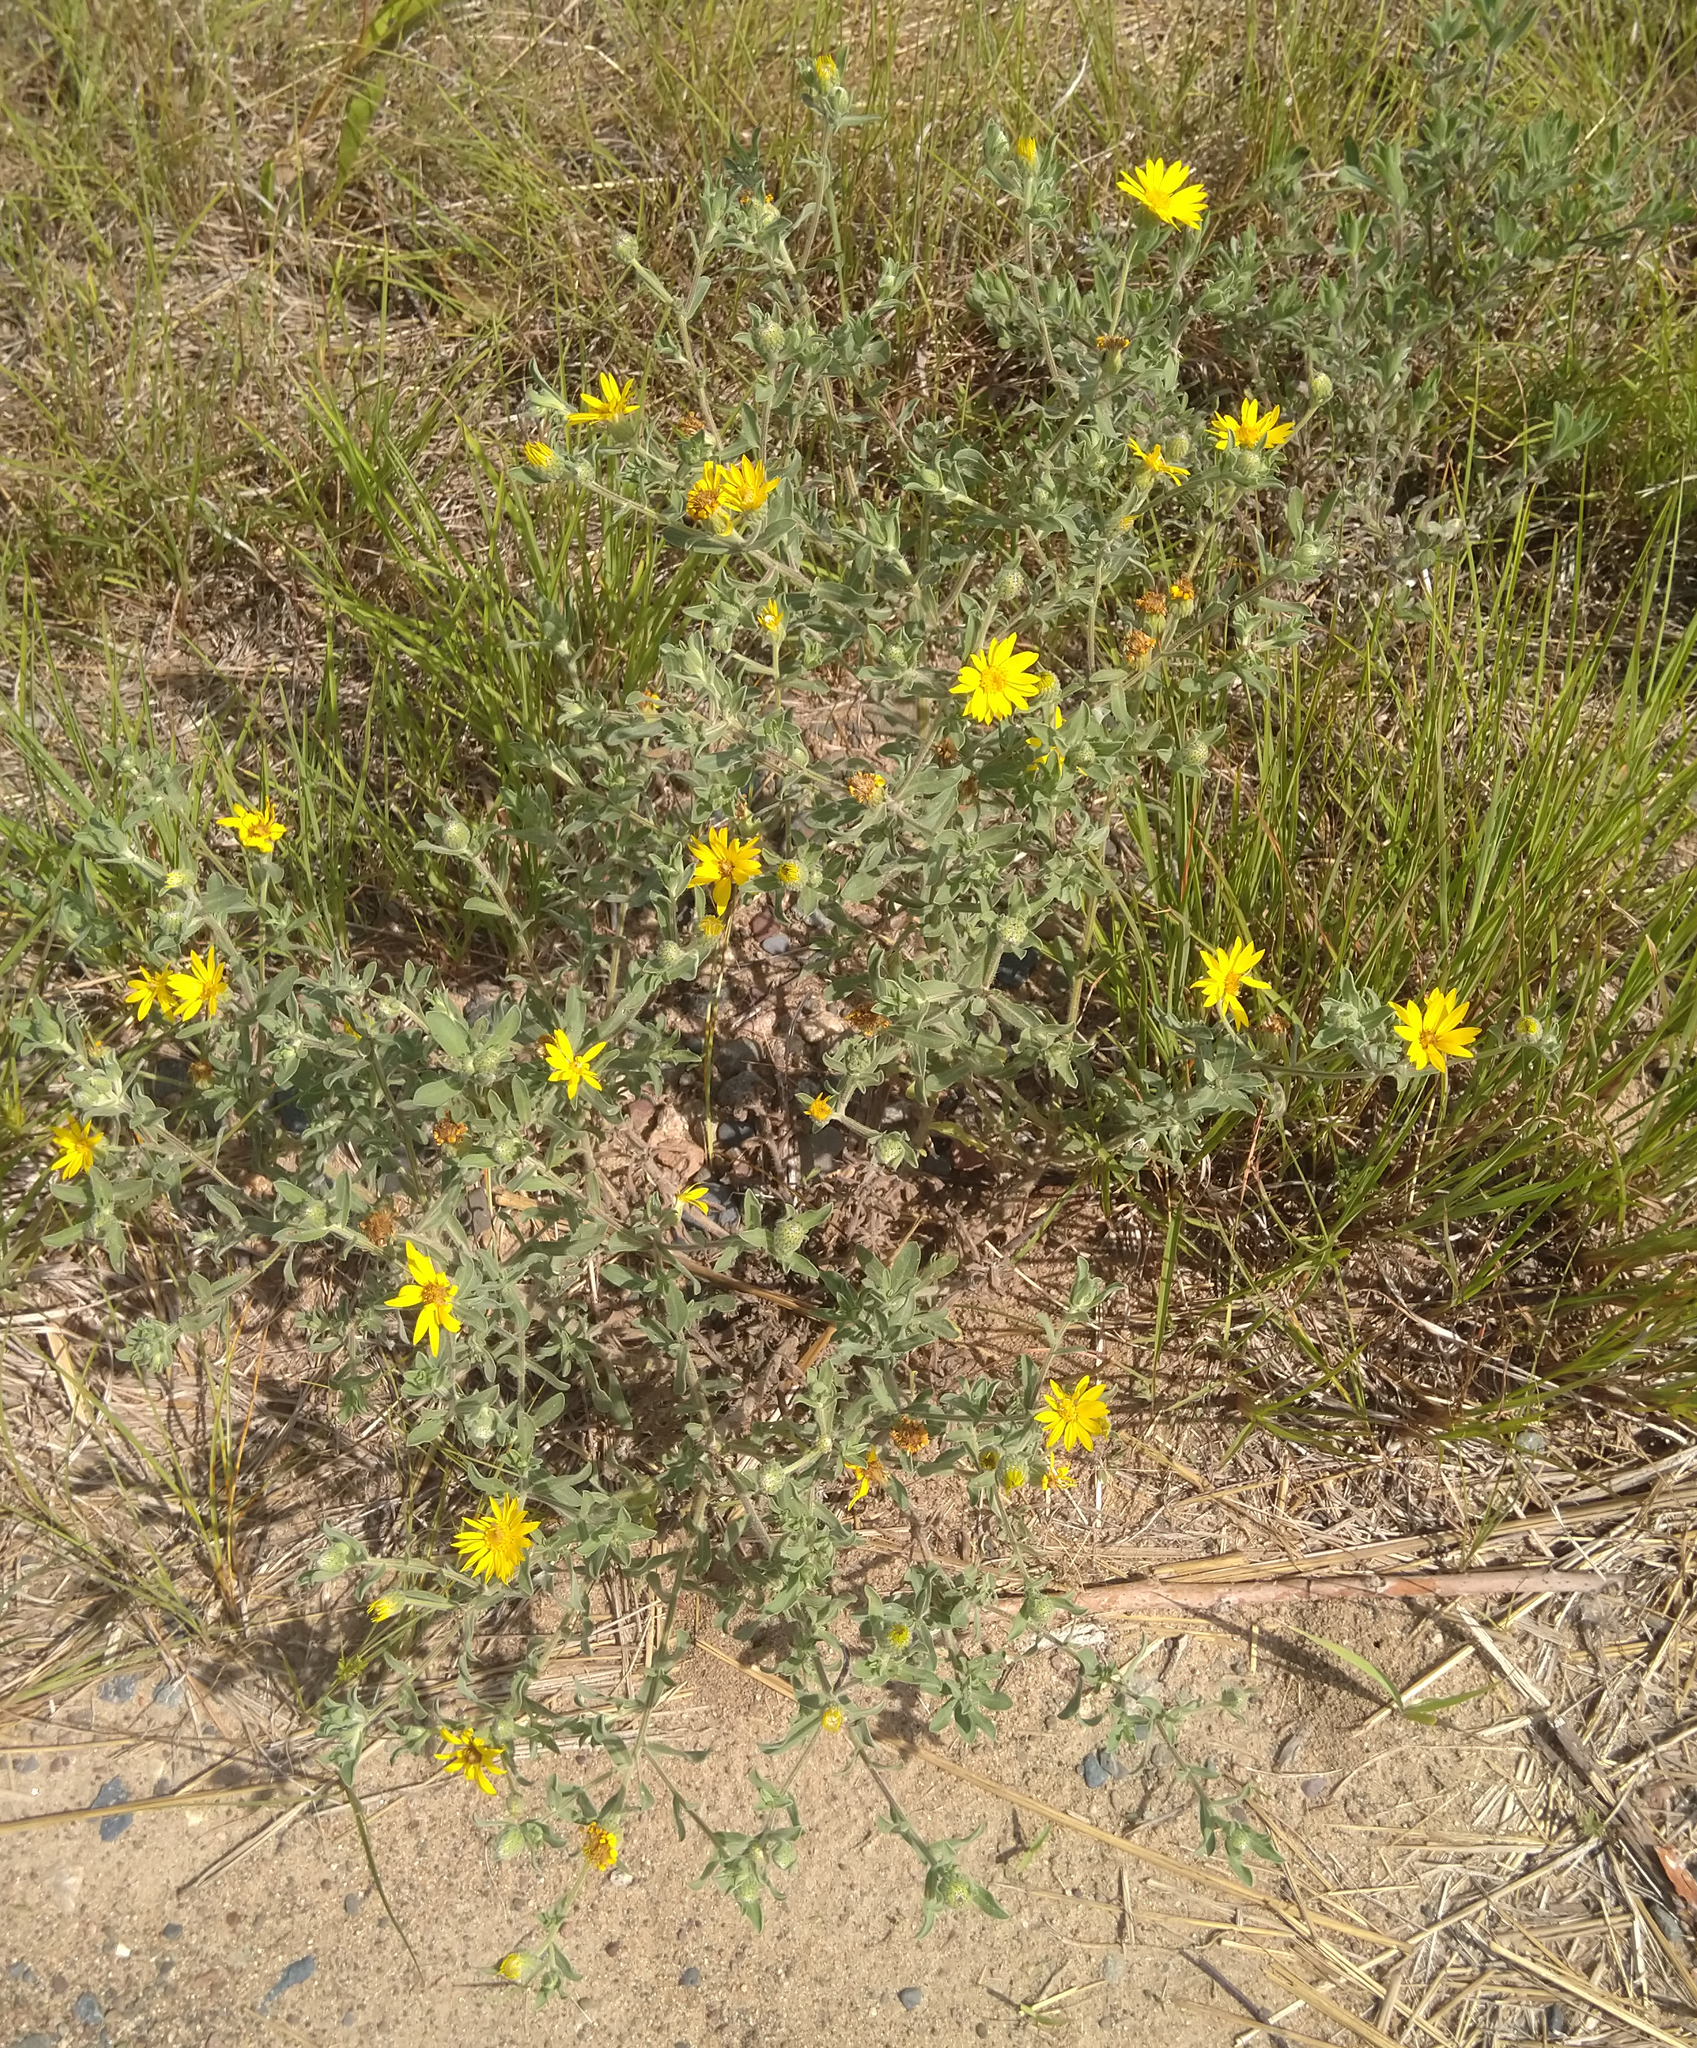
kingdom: Plantae
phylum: Tracheophyta
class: Magnoliopsida
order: Asterales
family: Asteraceae
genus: Heterotheca
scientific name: Heterotheca villosa
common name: Hairy false goldenaster
